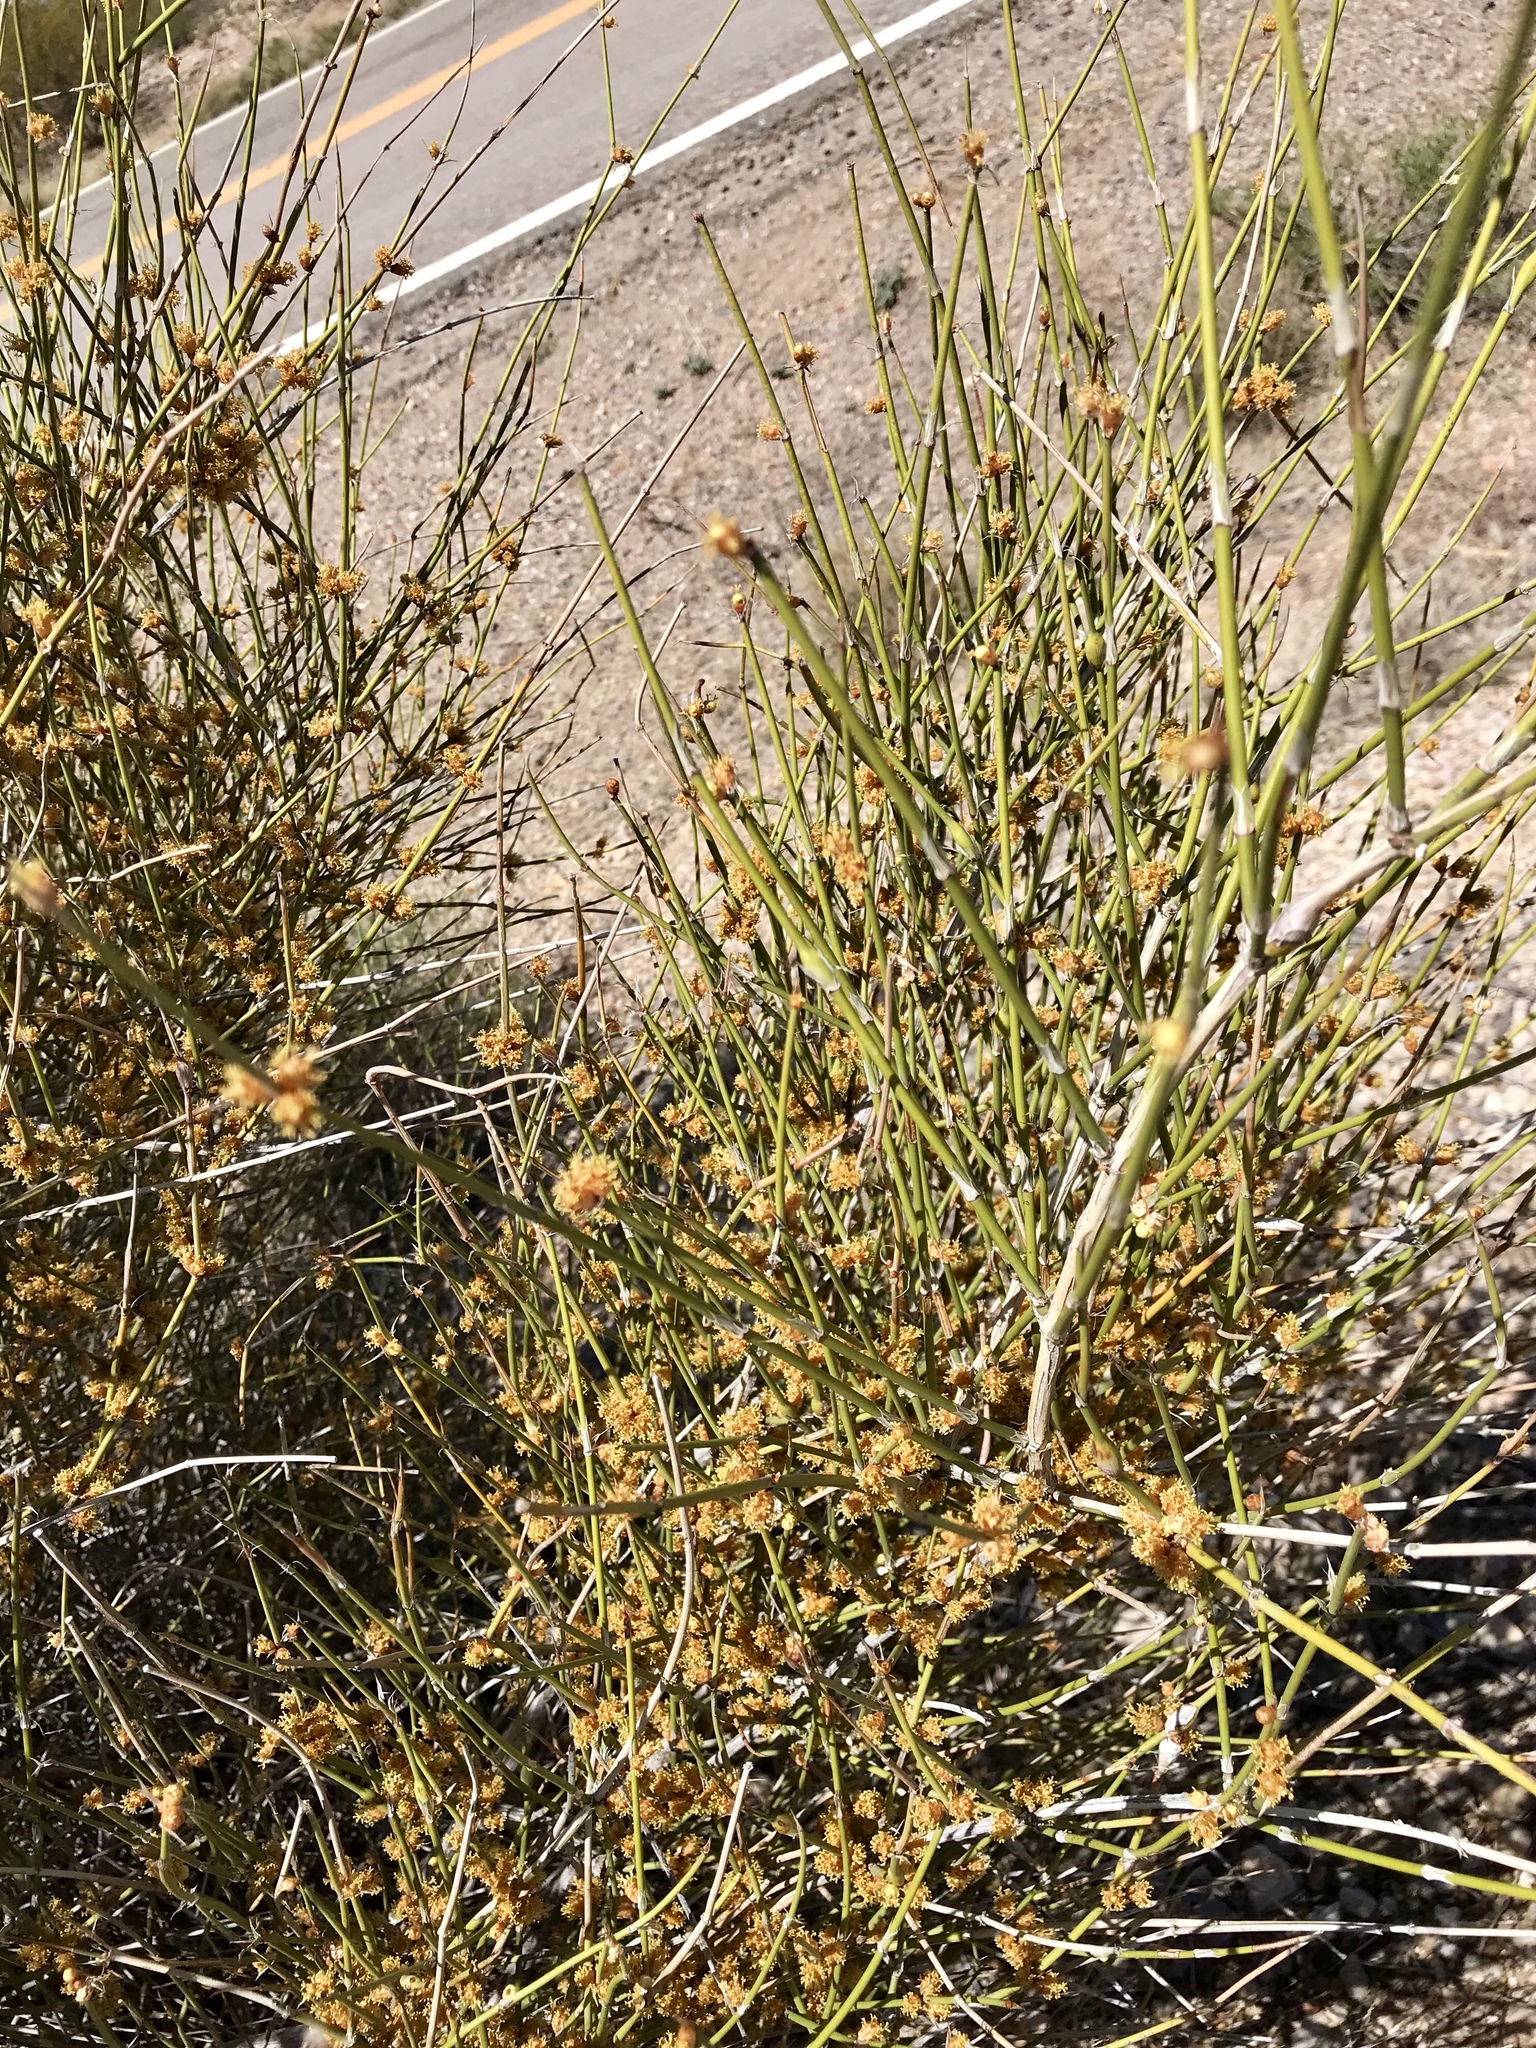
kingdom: Plantae
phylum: Tracheophyta
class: Gnetopsida
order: Ephedrales
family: Ephedraceae
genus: Ephedra
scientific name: Ephedra trifurca
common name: Mexican-tea
